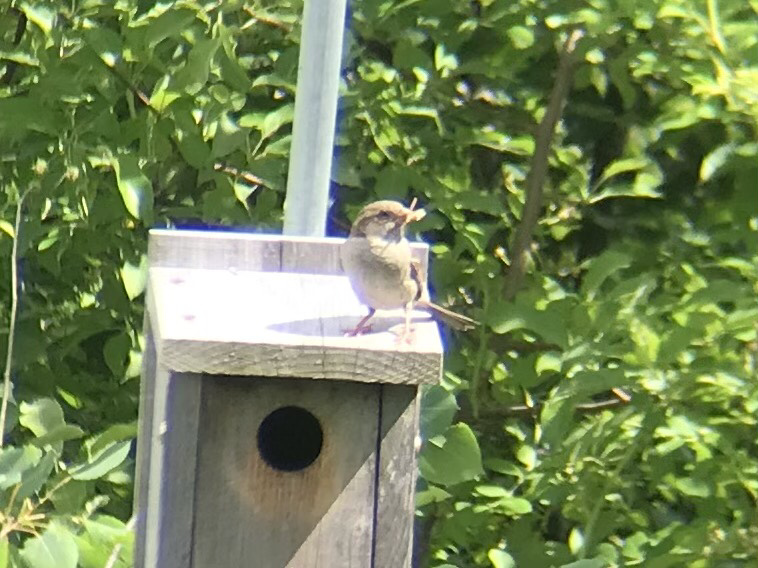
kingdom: Animalia
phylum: Chordata
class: Aves
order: Passeriformes
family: Passeridae
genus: Passer
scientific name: Passer domesticus
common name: House sparrow
